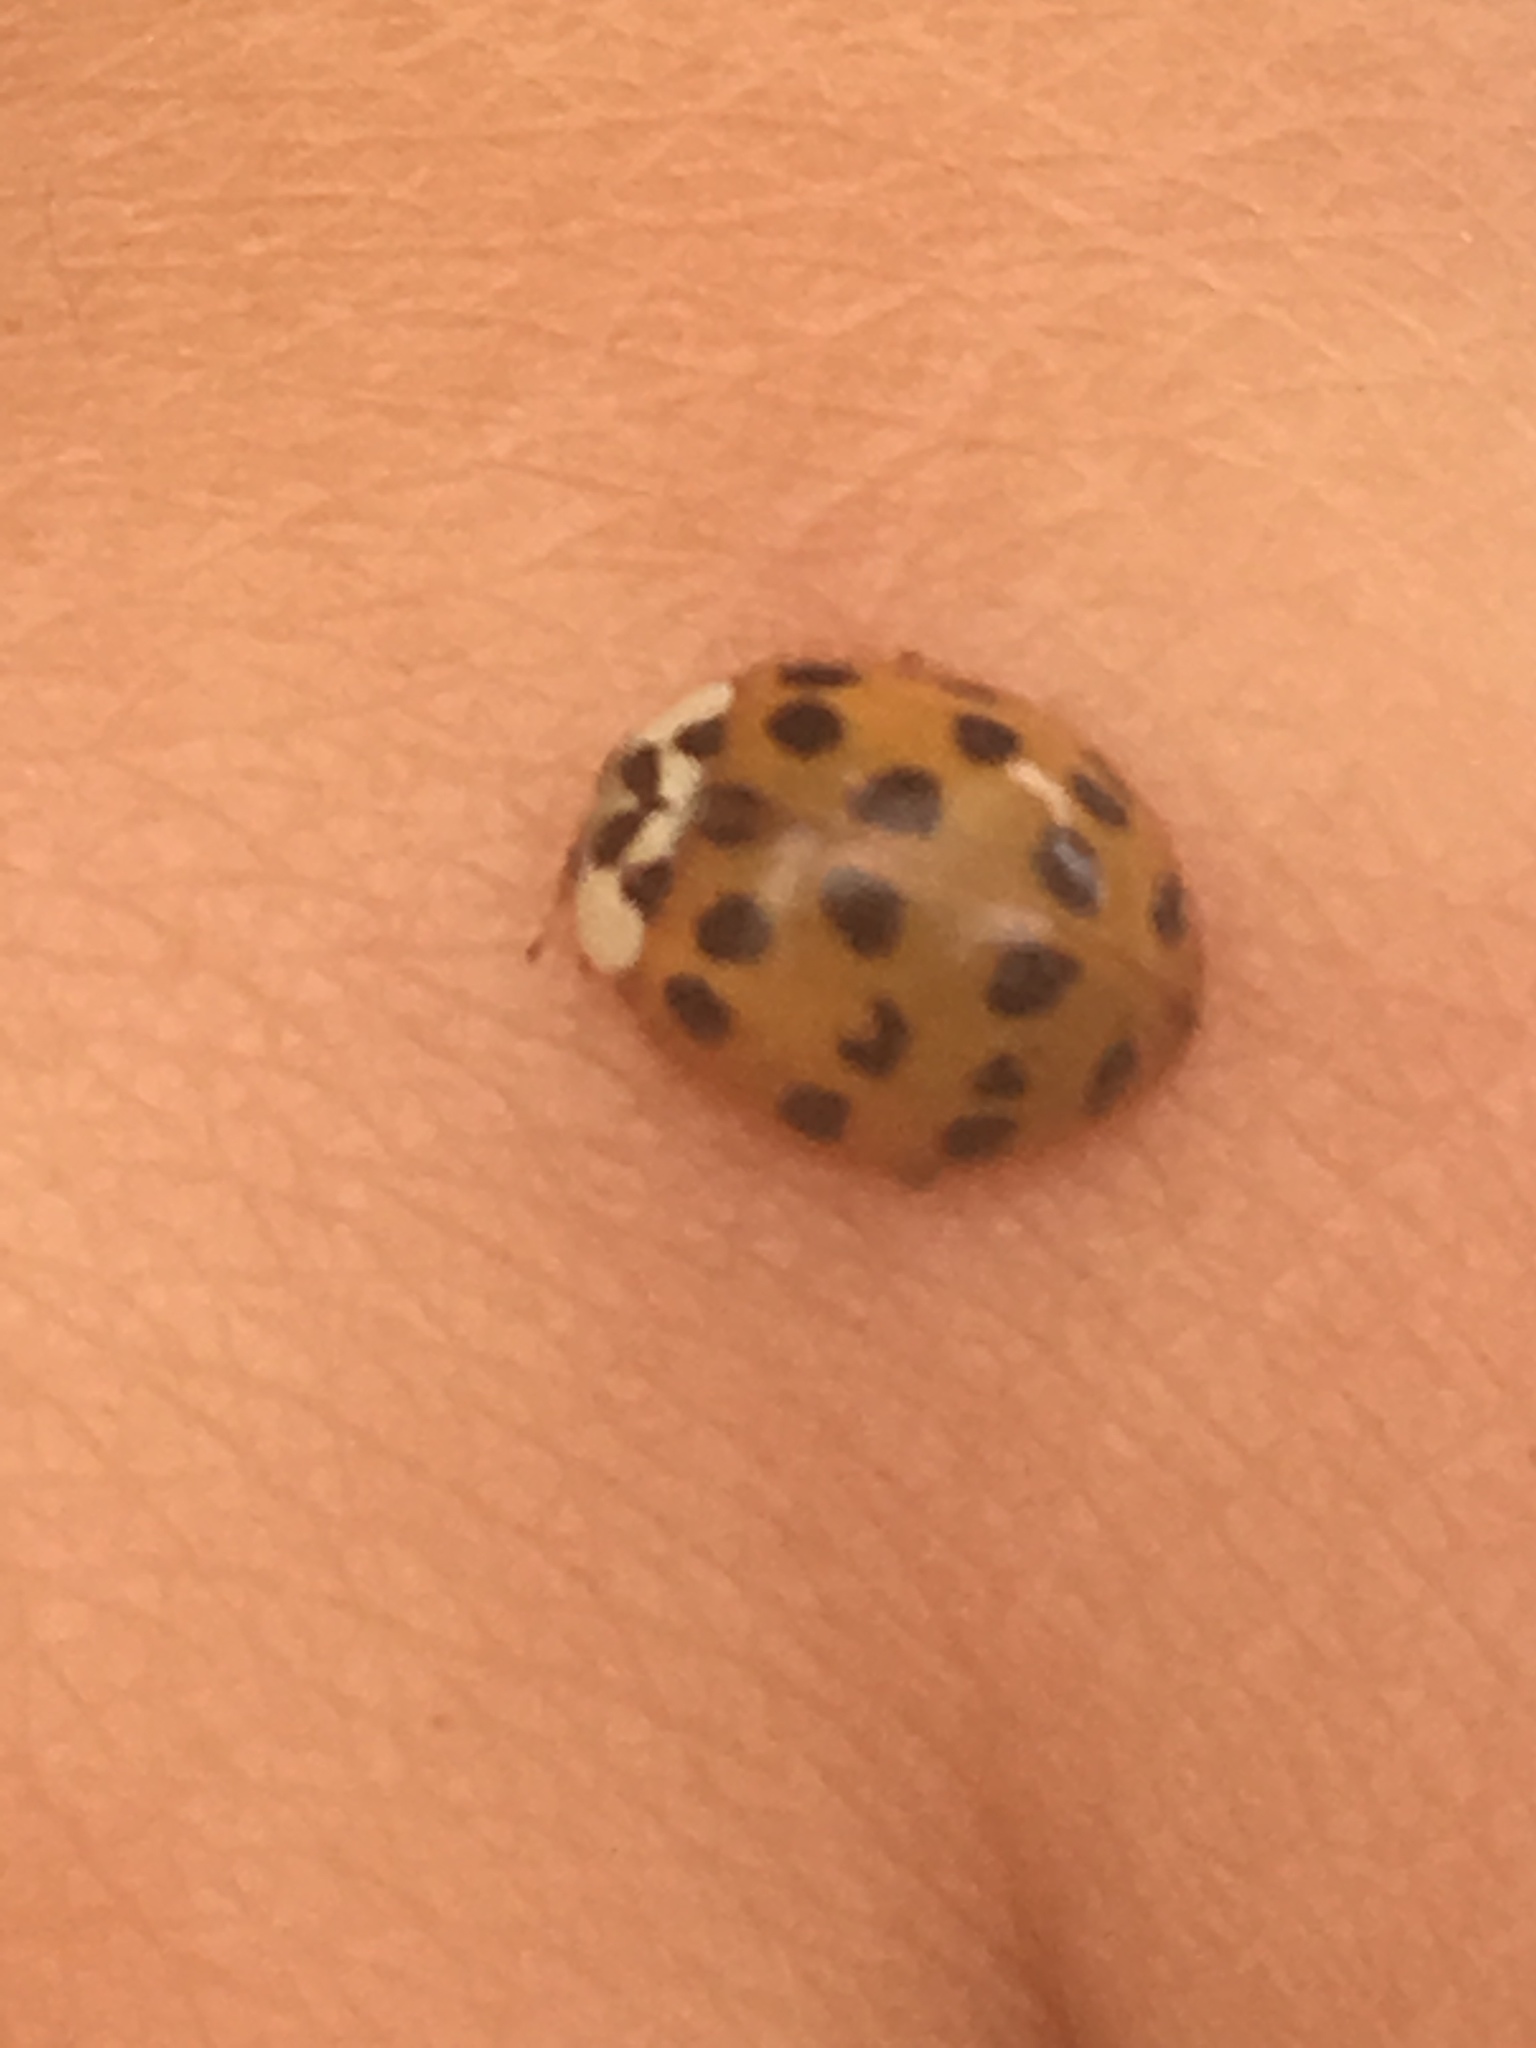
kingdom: Animalia
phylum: Arthropoda
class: Insecta
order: Coleoptera
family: Coccinellidae
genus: Harmonia
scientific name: Harmonia axyridis
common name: Harlequin ladybird
